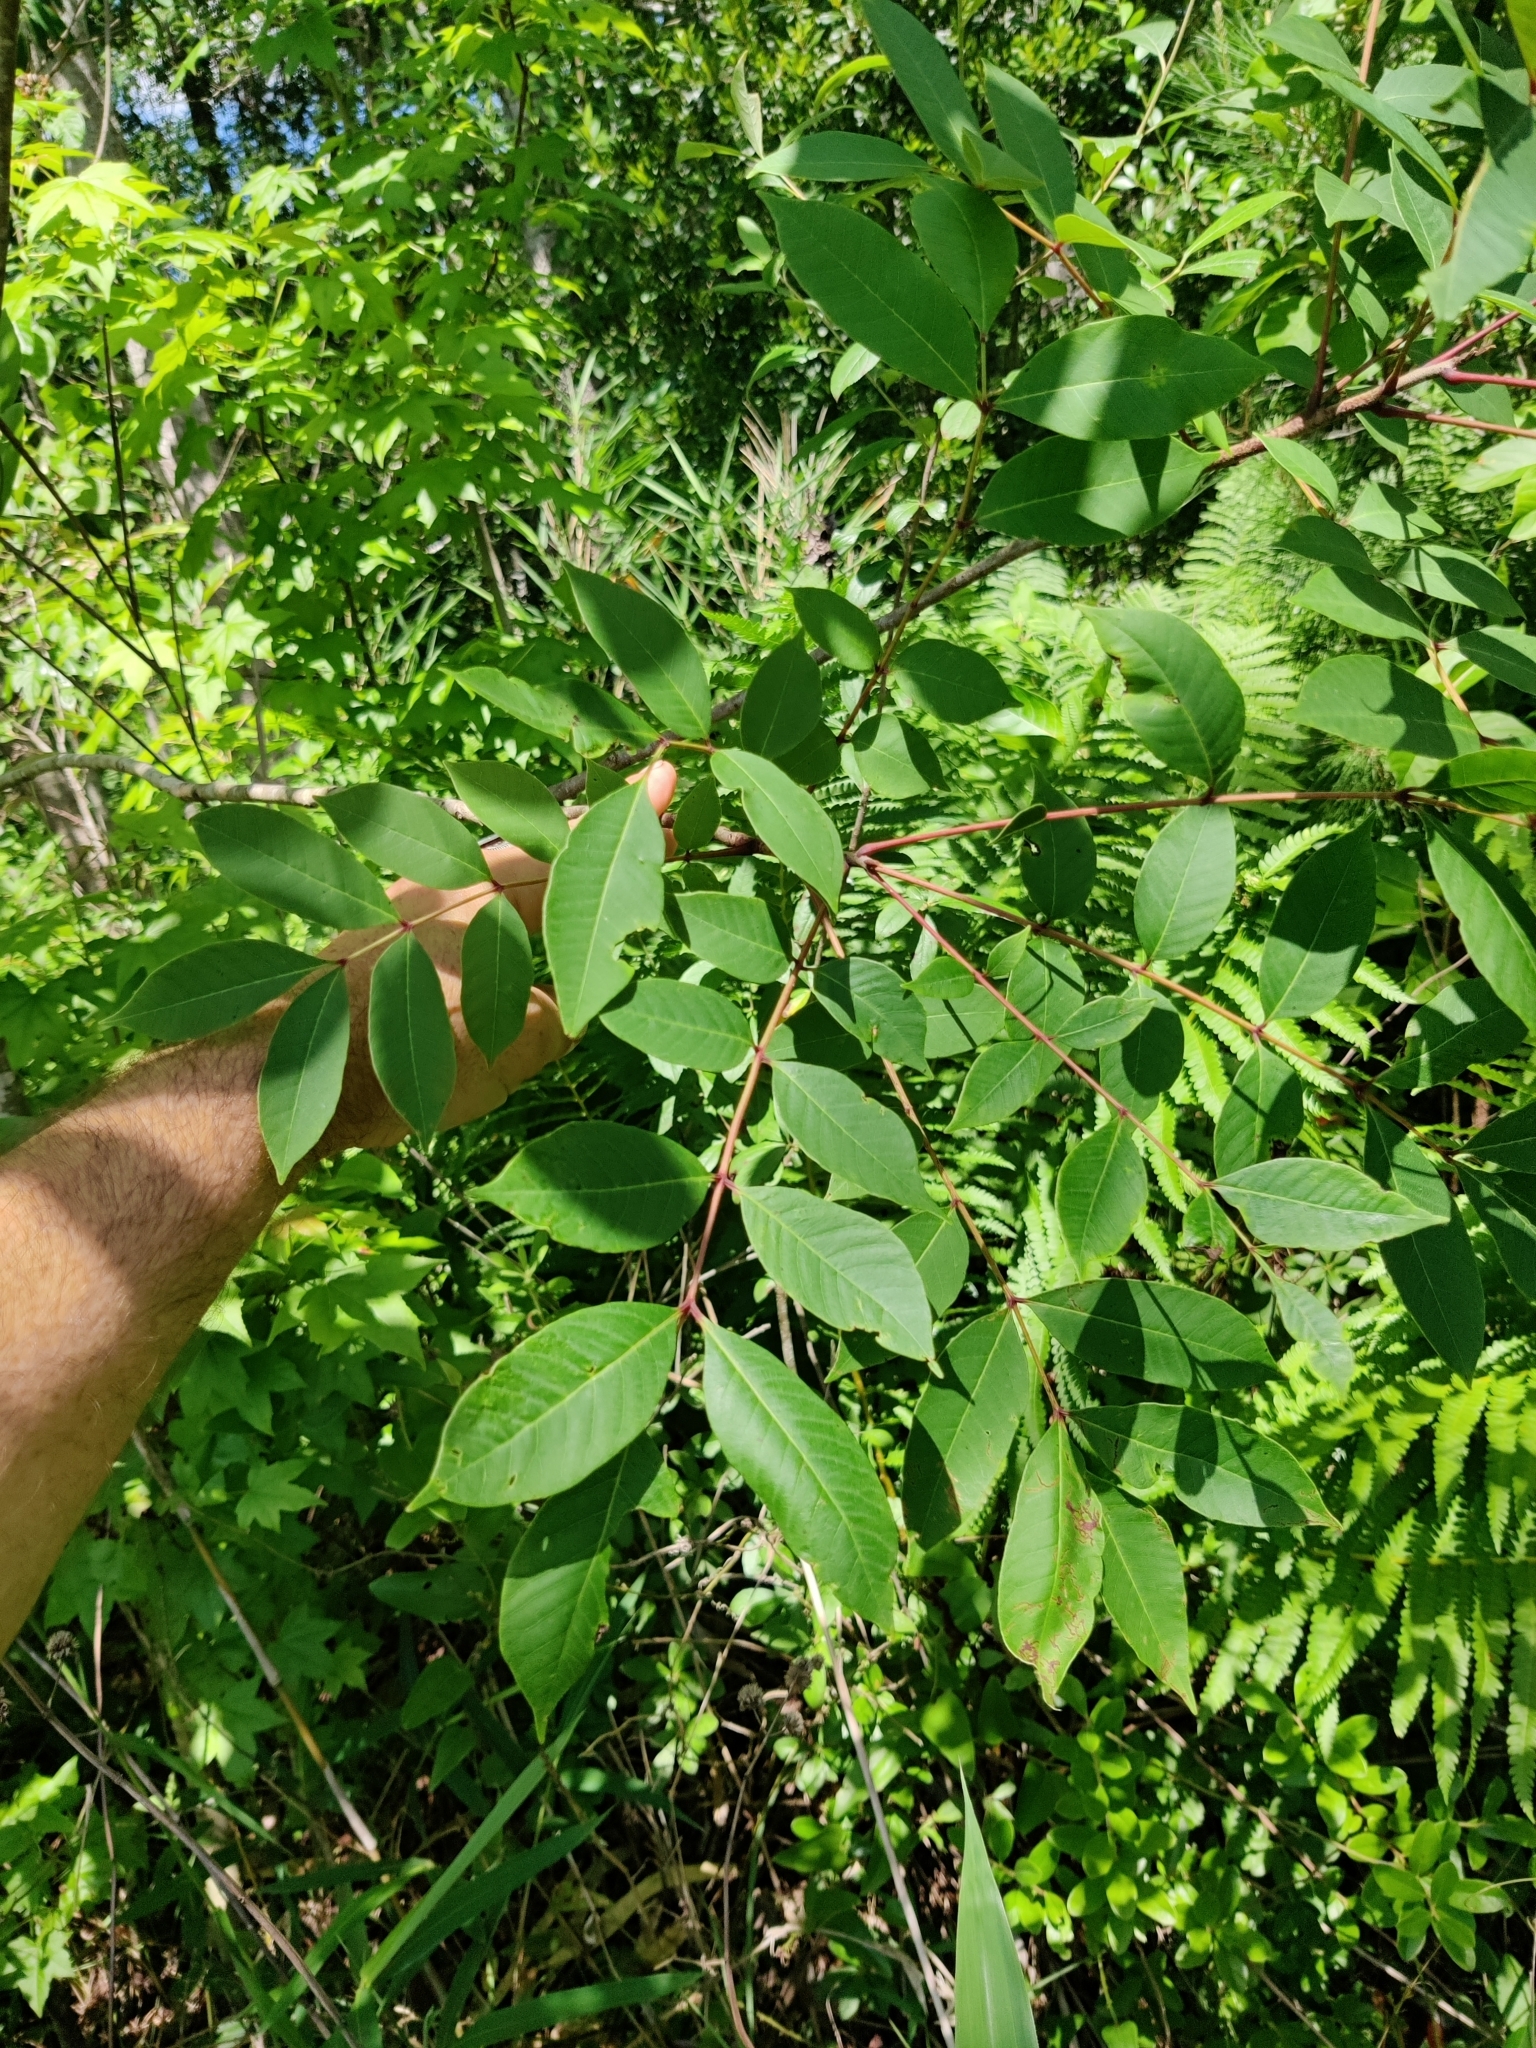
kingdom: Plantae
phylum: Tracheophyta
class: Magnoliopsida
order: Sapindales
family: Anacardiaceae
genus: Toxicodendron
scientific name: Toxicodendron vernix
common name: Poison sumac
